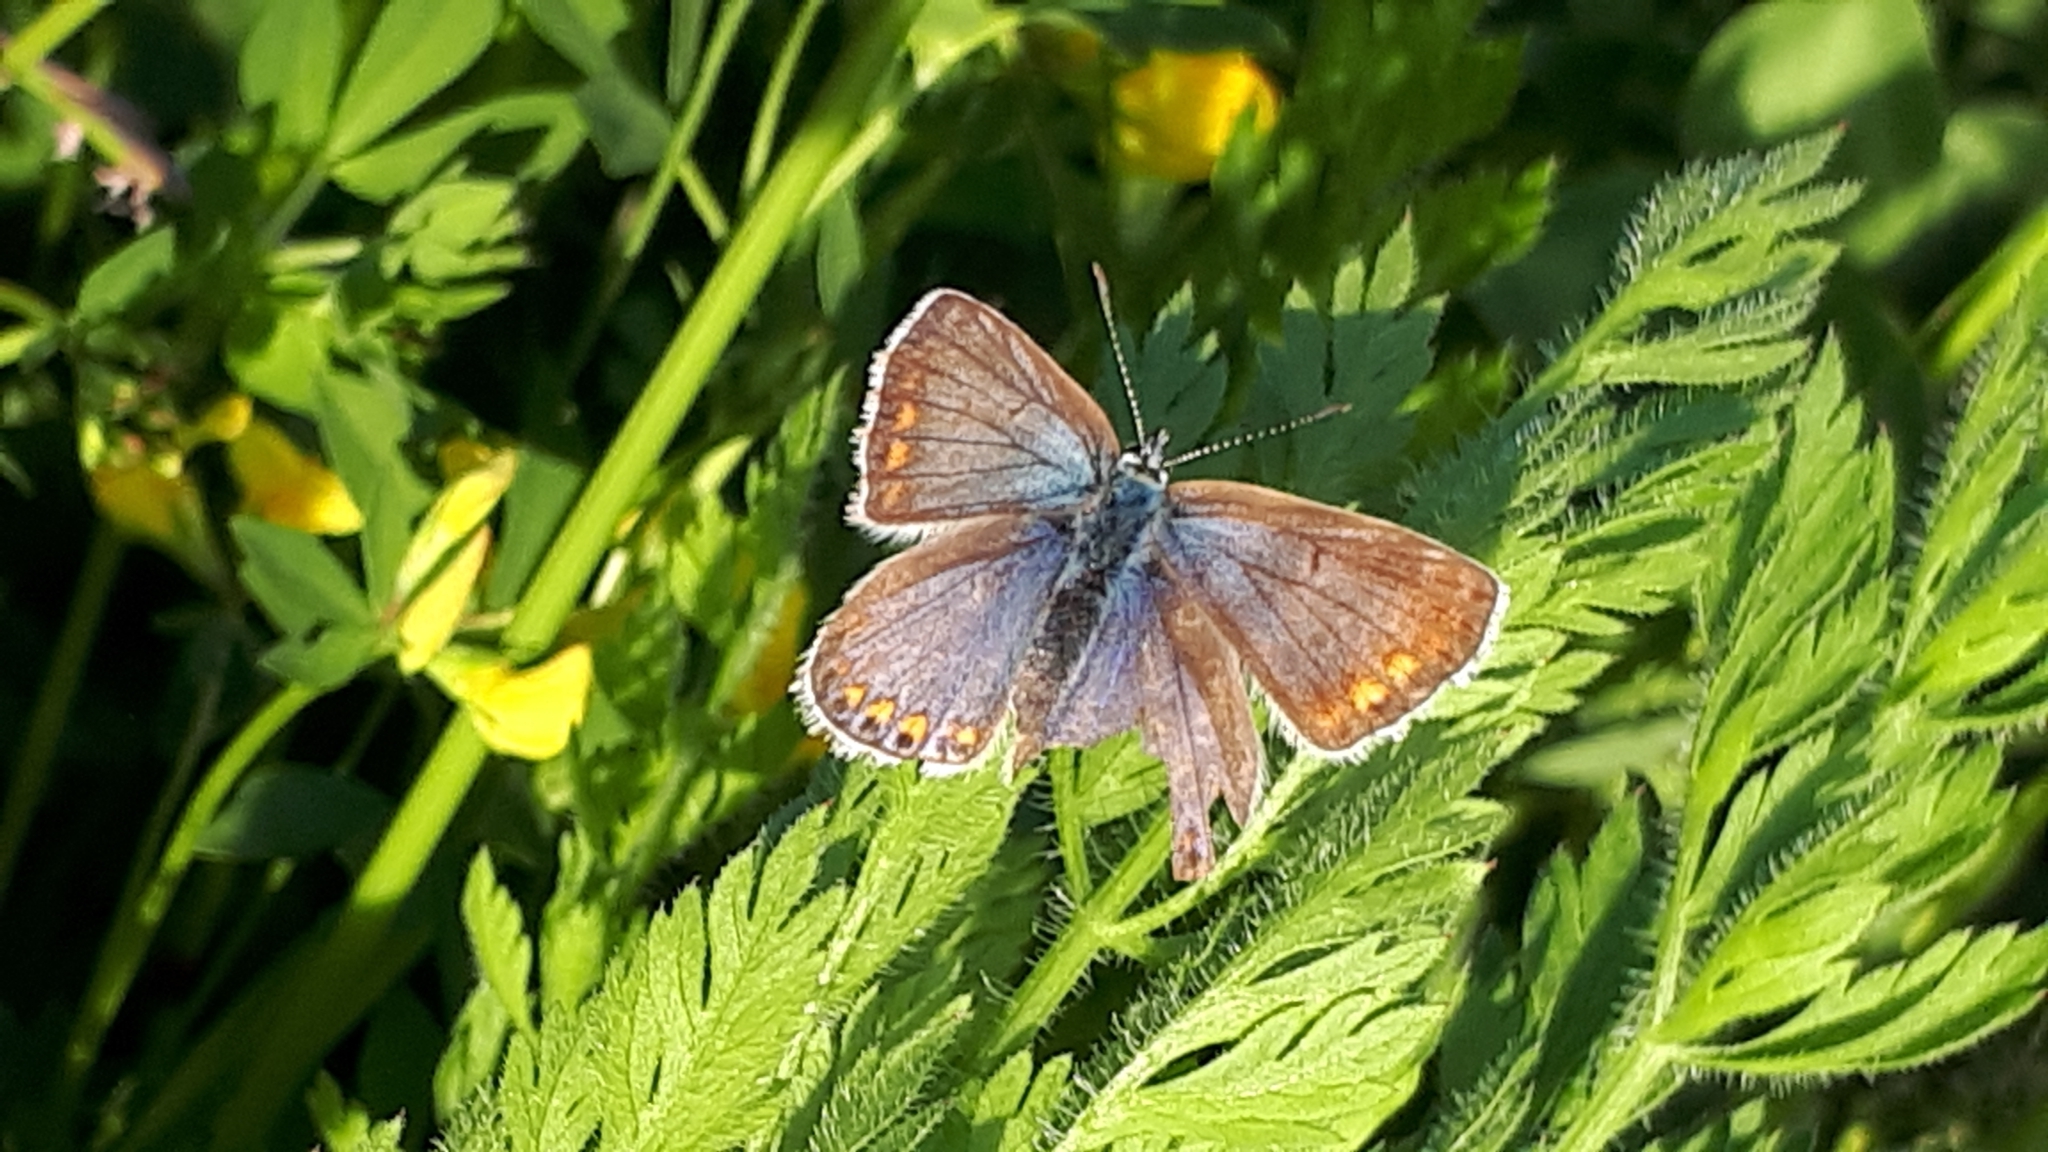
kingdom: Animalia
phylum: Arthropoda
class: Insecta
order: Lepidoptera
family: Lycaenidae
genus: Polyommatus
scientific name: Polyommatus icarus
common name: Common blue
